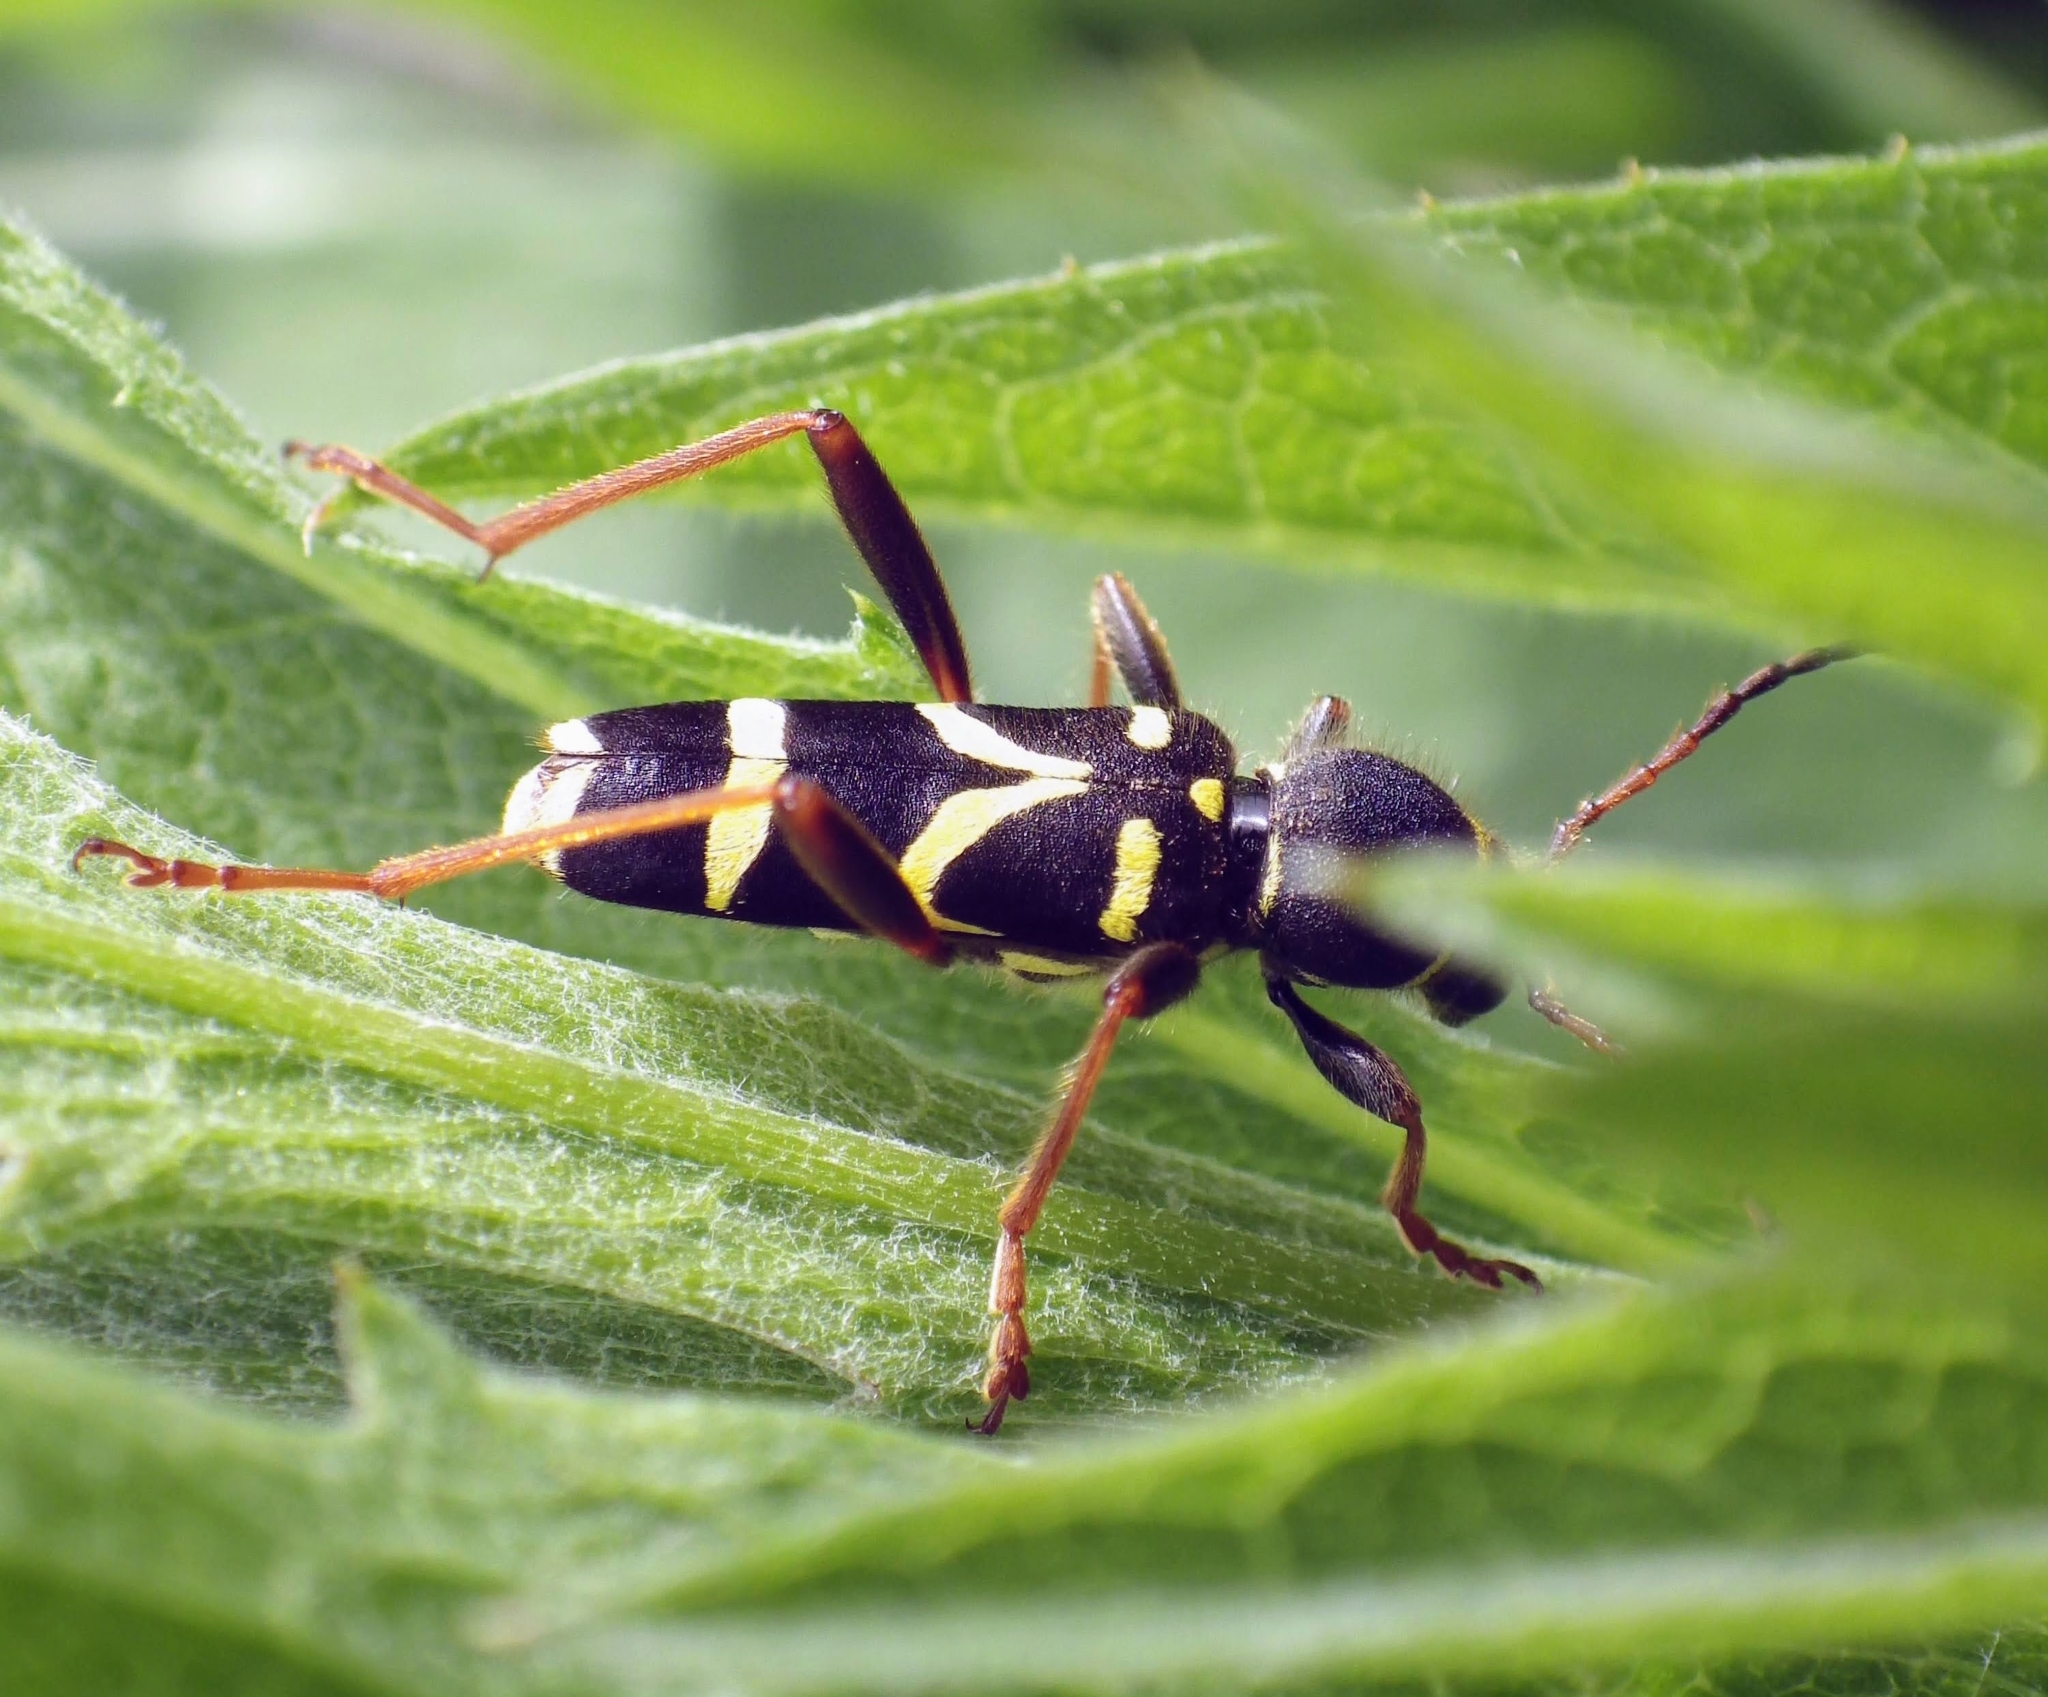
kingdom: Animalia
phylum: Arthropoda
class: Insecta
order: Coleoptera
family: Cerambycidae
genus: Clytus
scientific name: Clytus arietis
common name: Wasp beetle
